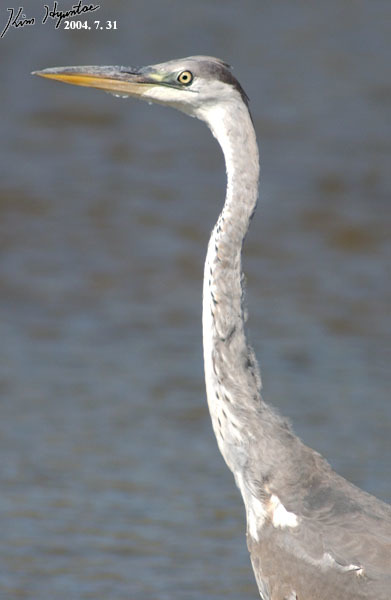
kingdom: Animalia
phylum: Chordata
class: Aves
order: Pelecaniformes
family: Ardeidae
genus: Ardea
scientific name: Ardea cinerea
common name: Grey heron
